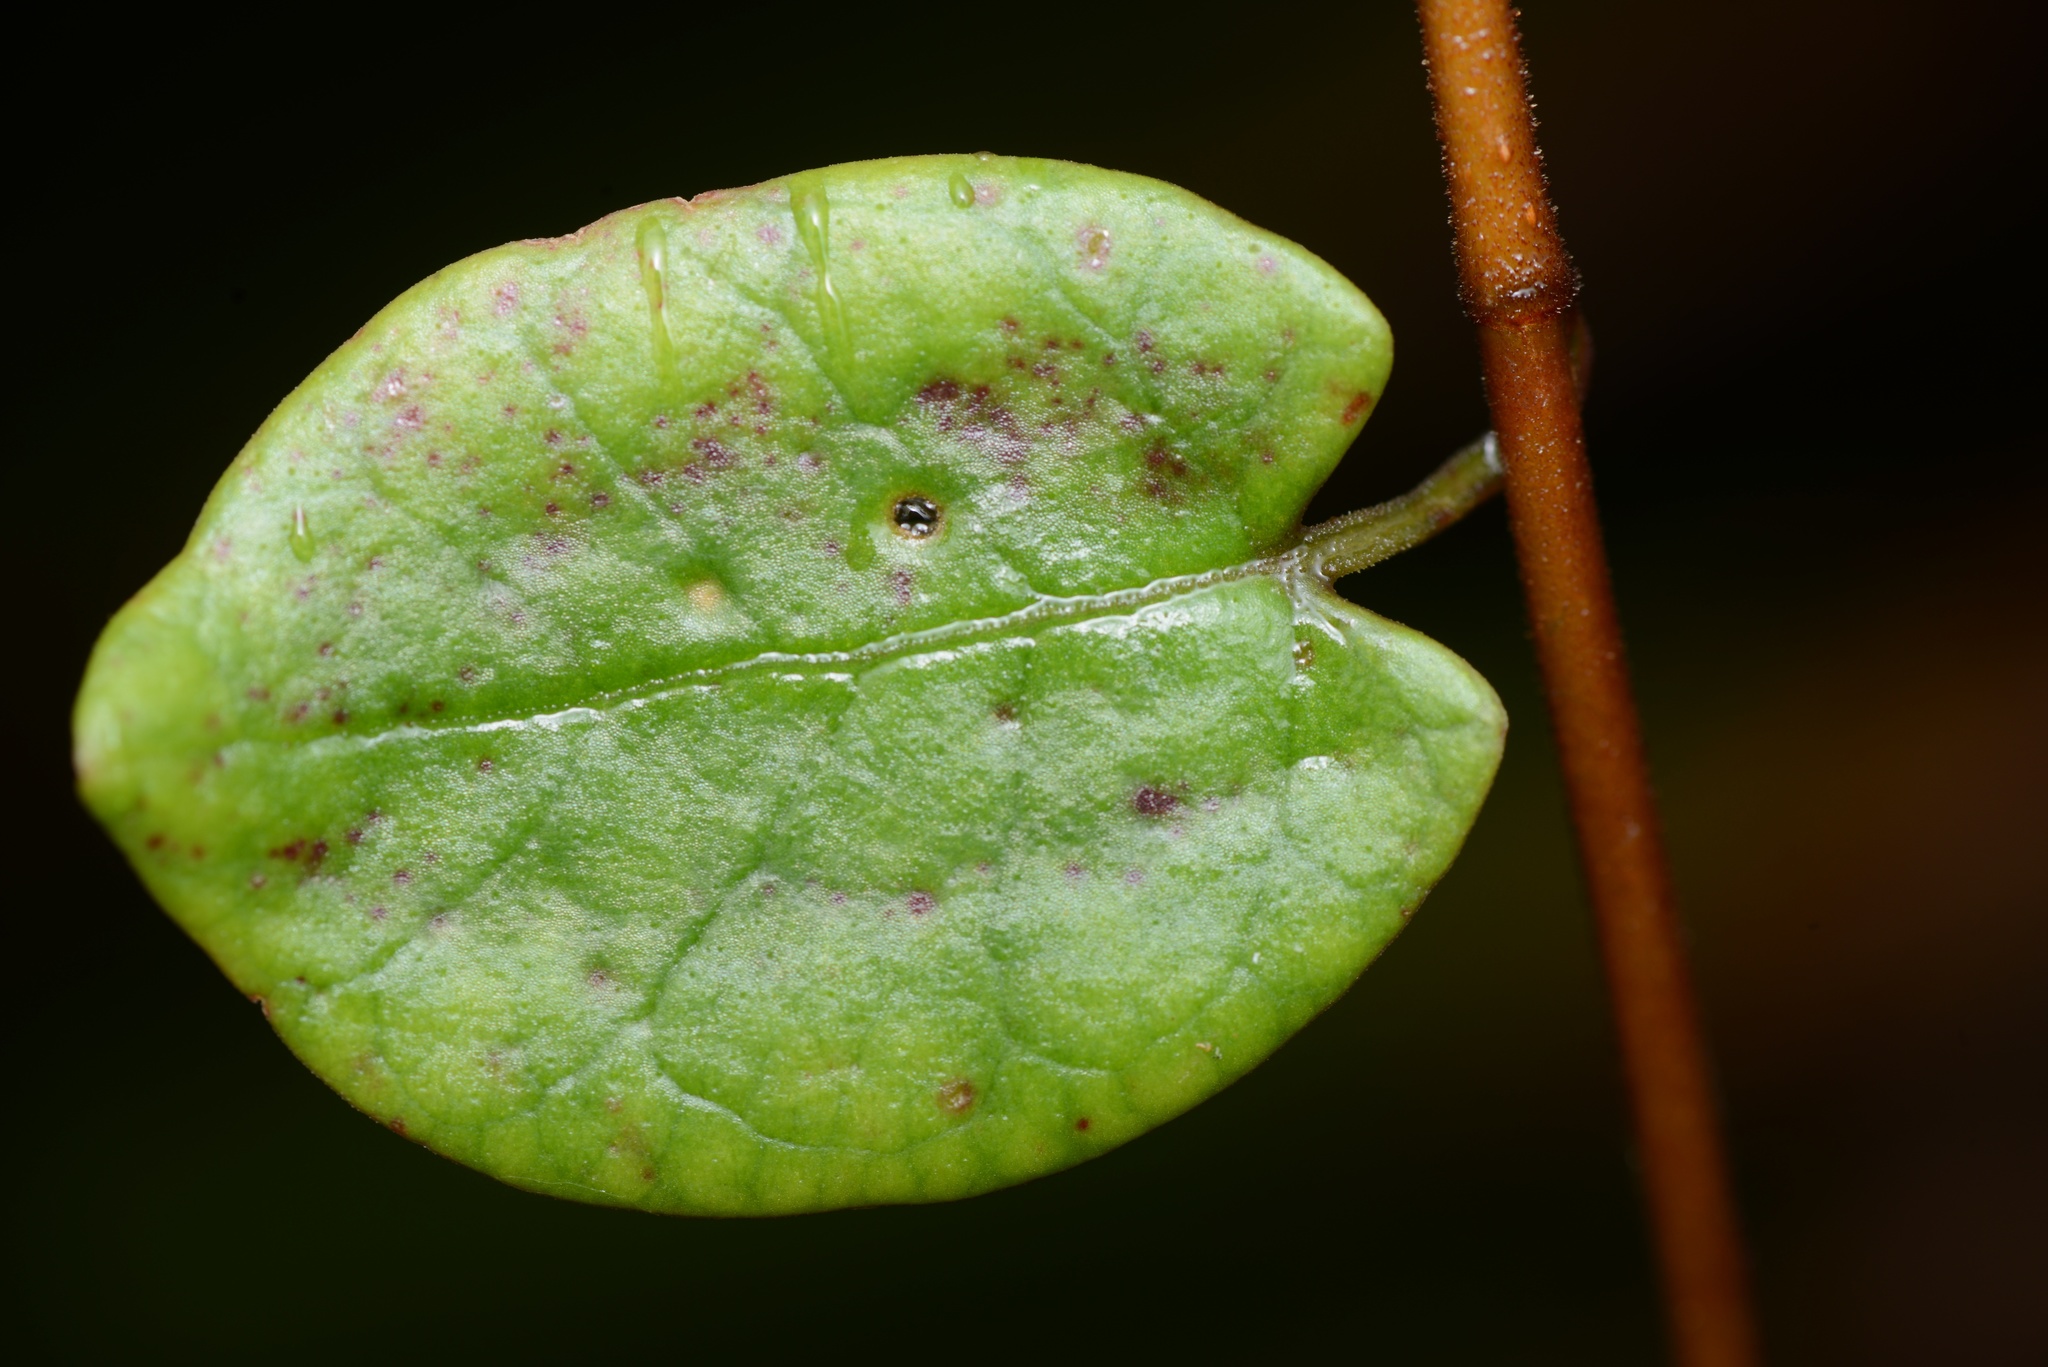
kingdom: Plantae
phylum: Tracheophyta
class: Magnoliopsida
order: Caryophyllales
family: Polygonaceae
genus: Muehlenbeckia
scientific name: Muehlenbeckia australis
